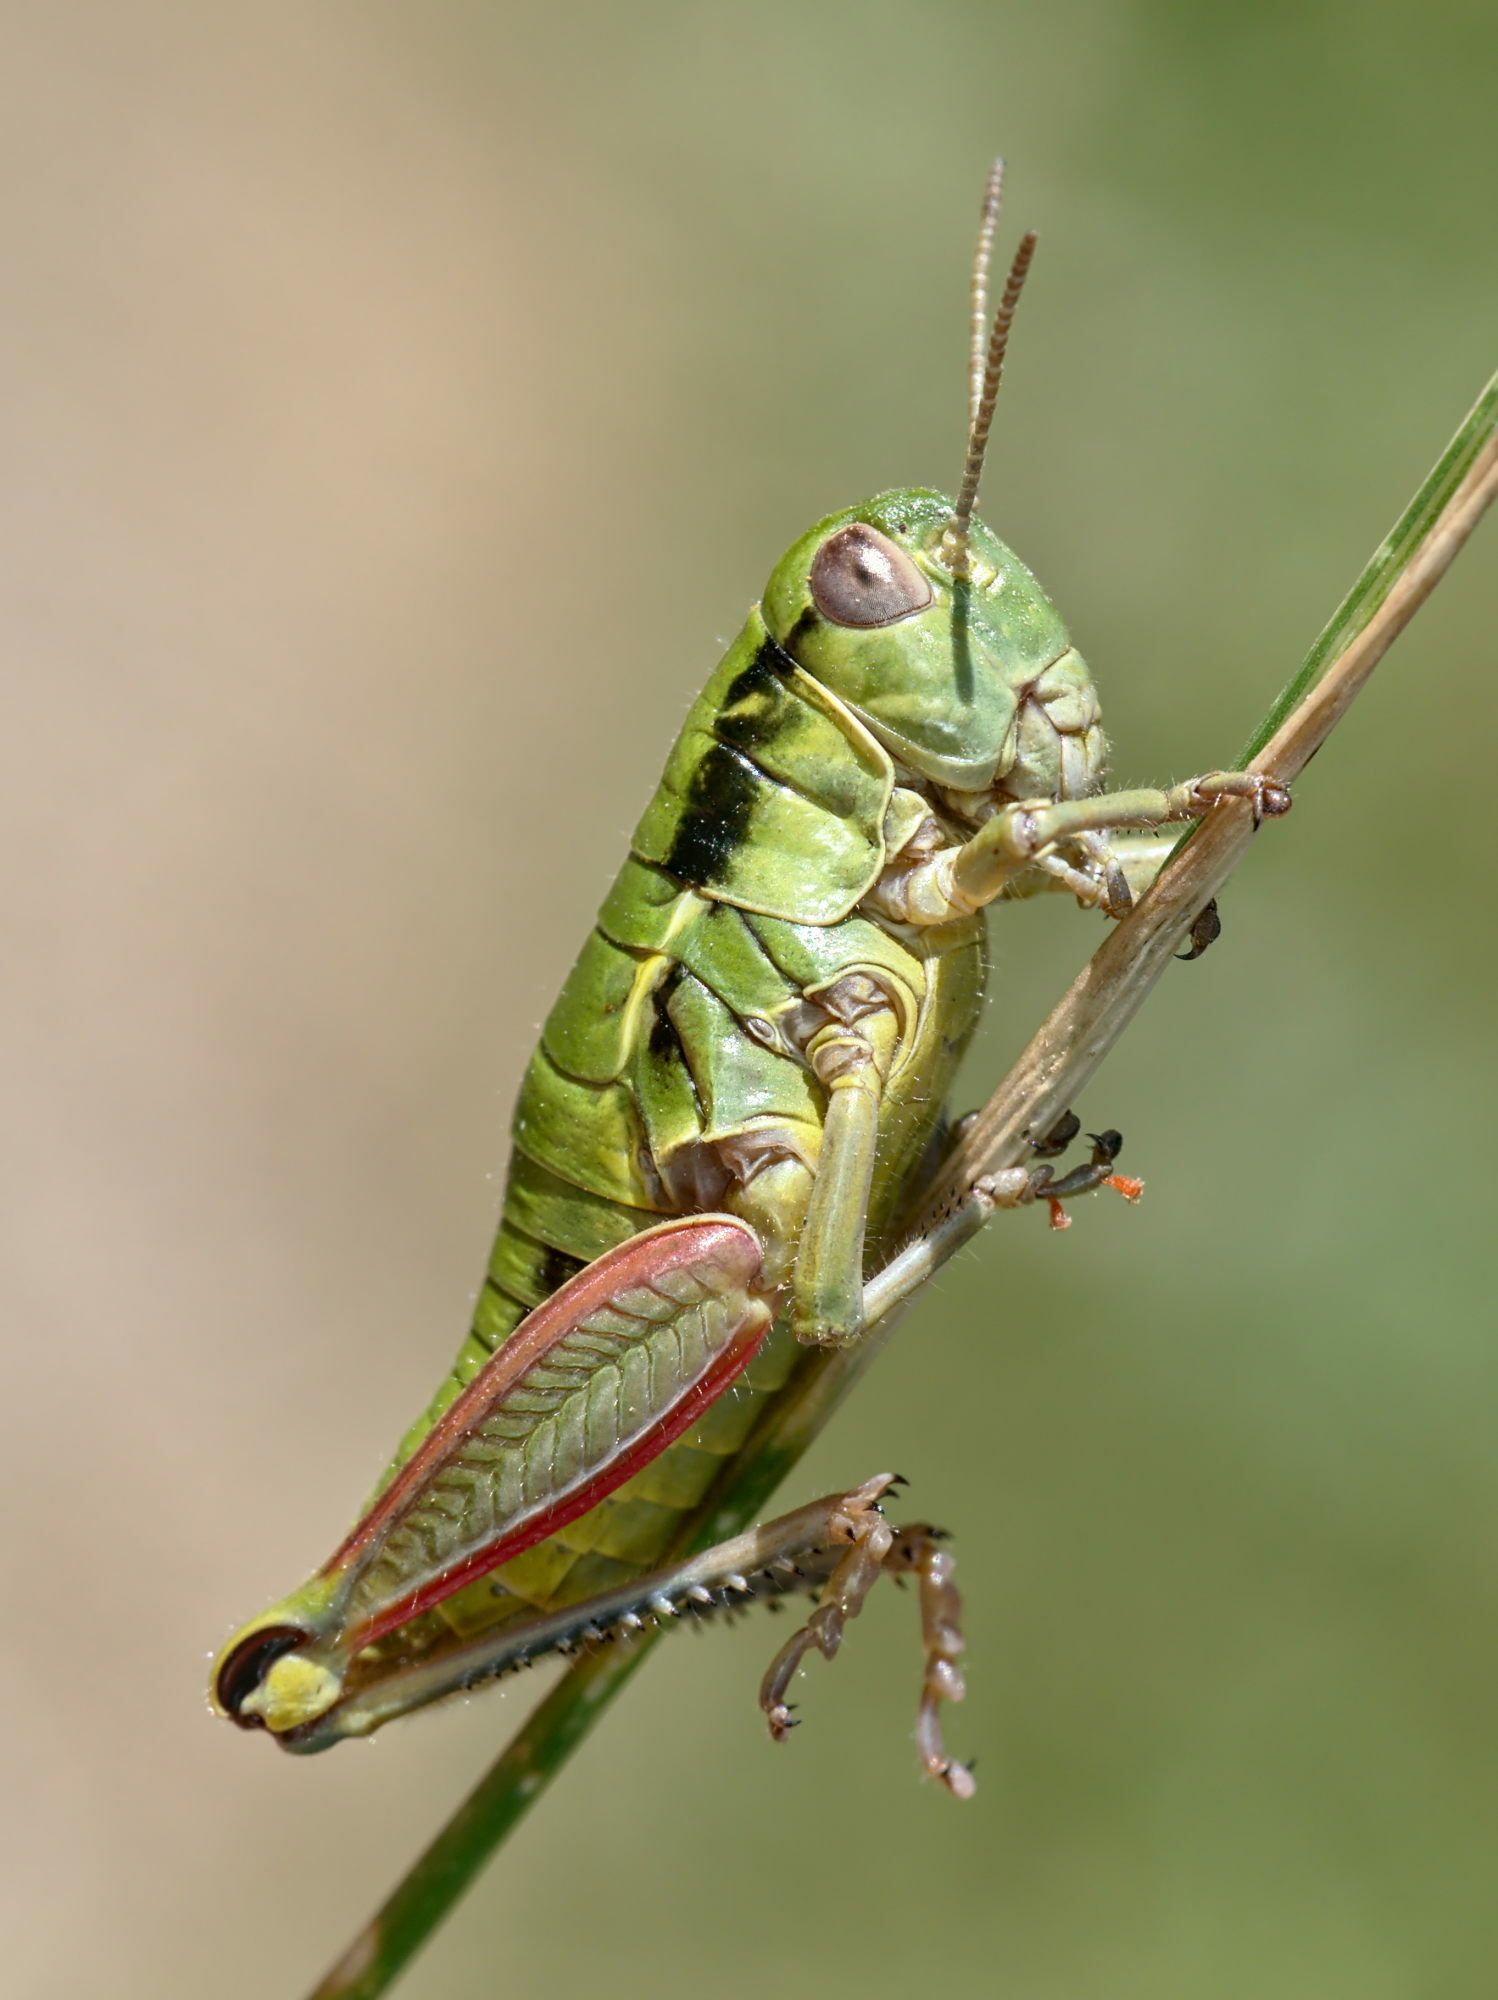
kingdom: Animalia
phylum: Arthropoda
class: Insecta
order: Orthoptera
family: Acrididae
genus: Epipodisma
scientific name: Epipodisma pedemontana
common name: Piedmont mountain grasshopper
